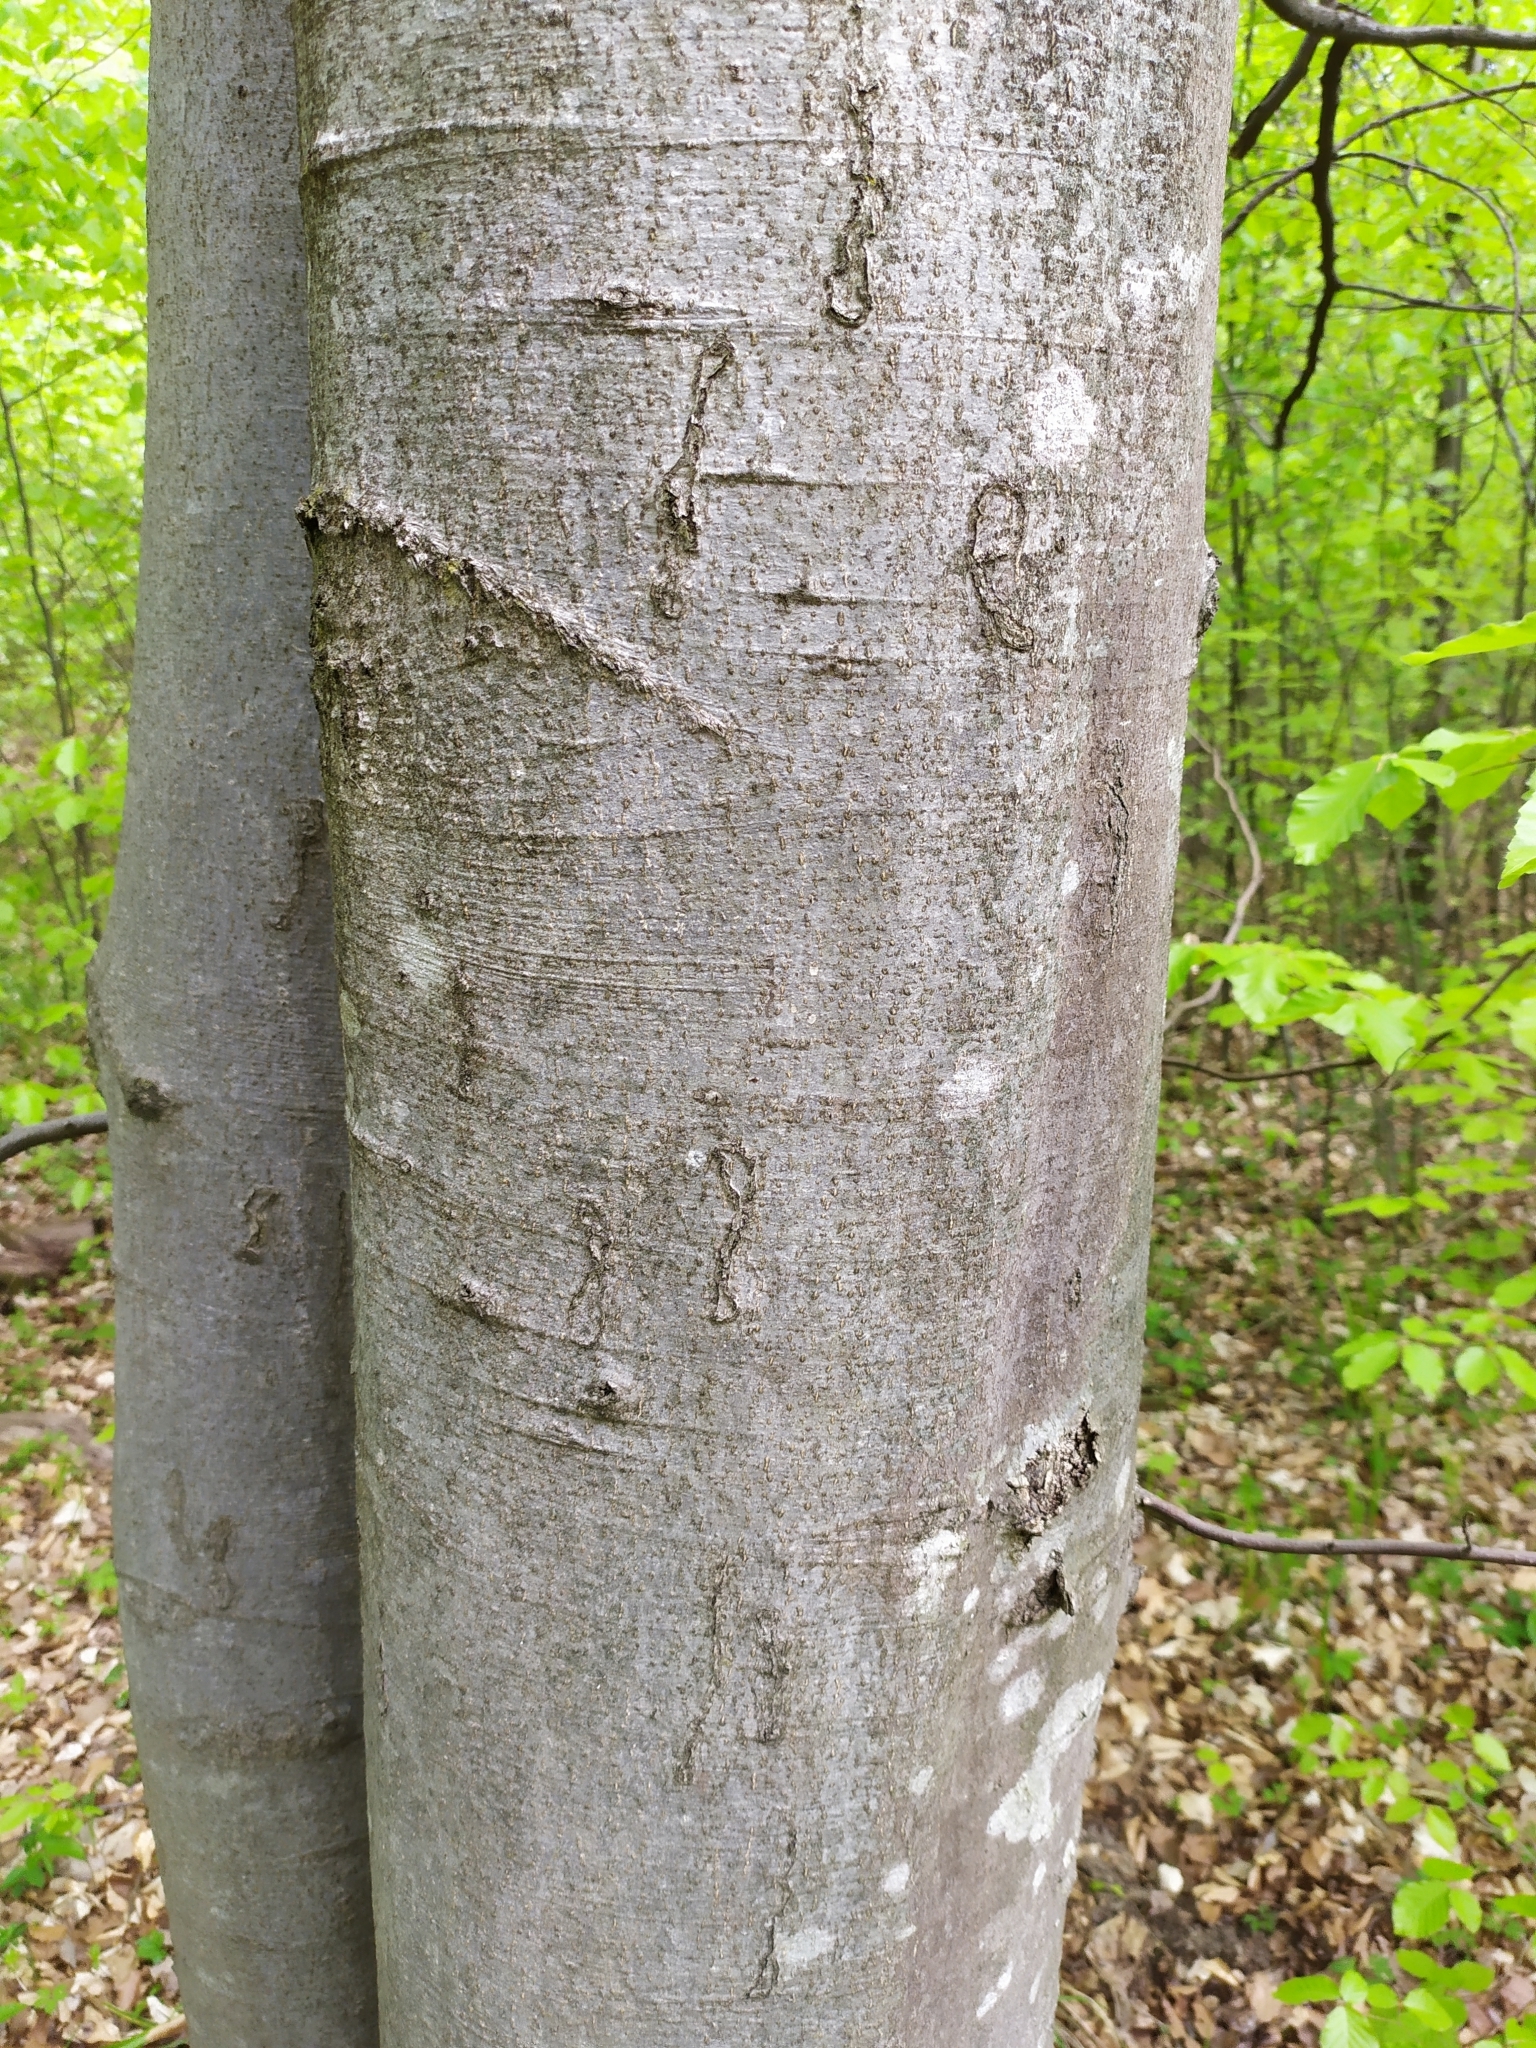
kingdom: Animalia
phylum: Arthropoda
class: Insecta
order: Lepidoptera
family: Nepticulidae
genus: Zimmermannia
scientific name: Zimmermannia liebwerdella
